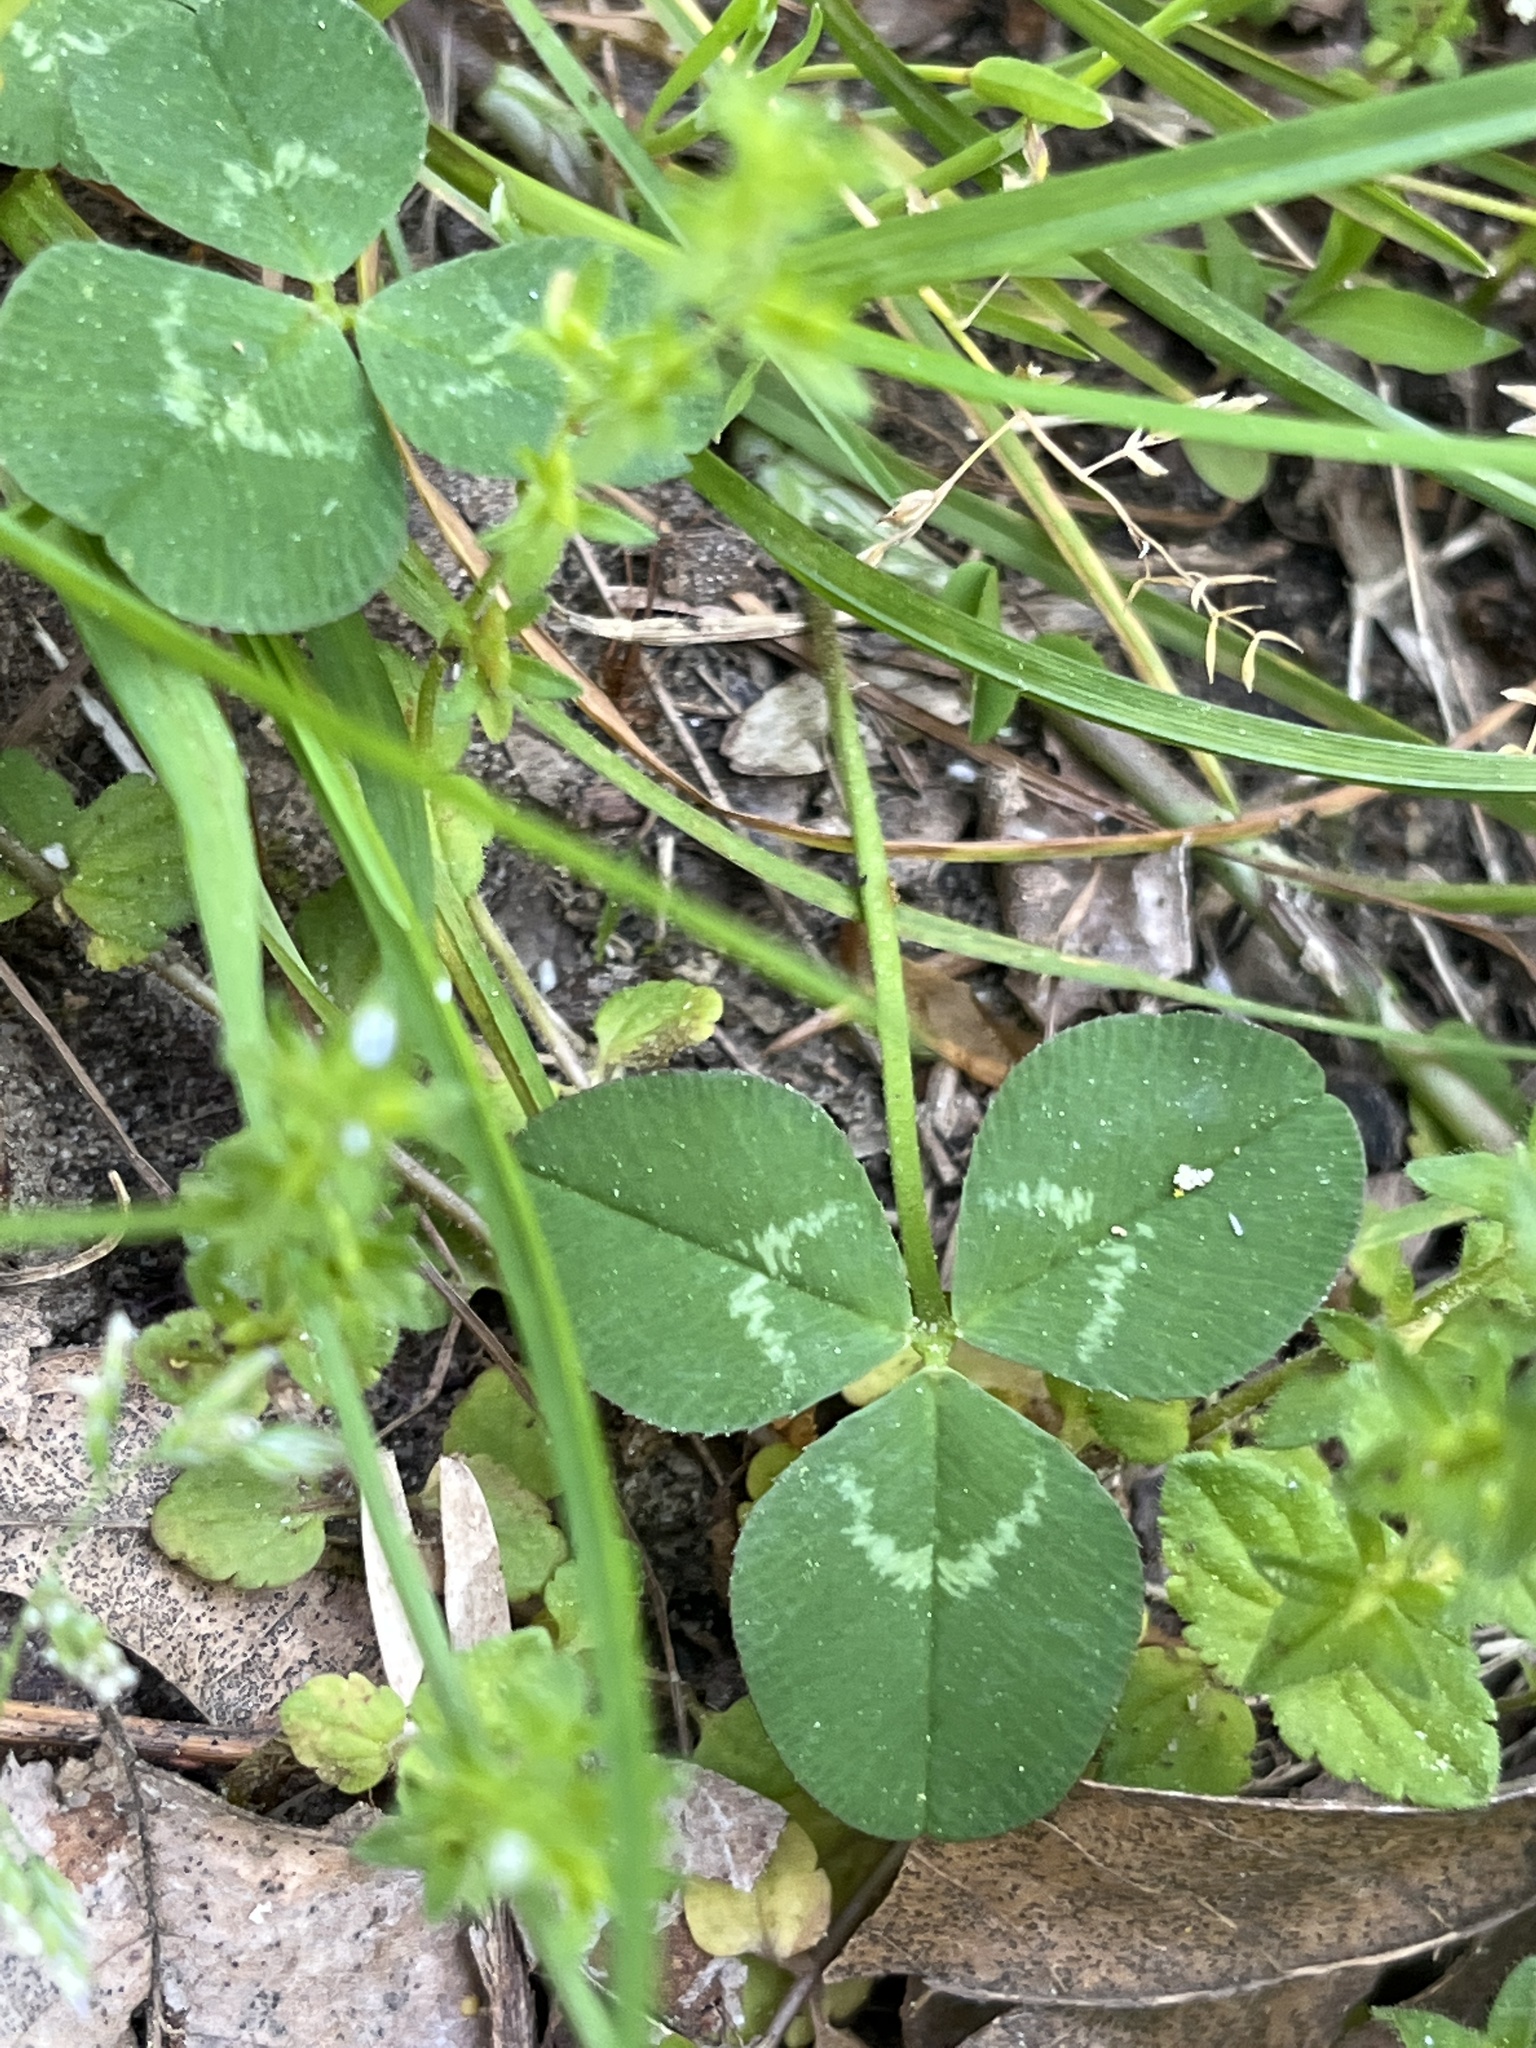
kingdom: Plantae
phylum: Tracheophyta
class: Magnoliopsida
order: Fabales
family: Fabaceae
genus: Trifolium
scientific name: Trifolium repens
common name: White clover
